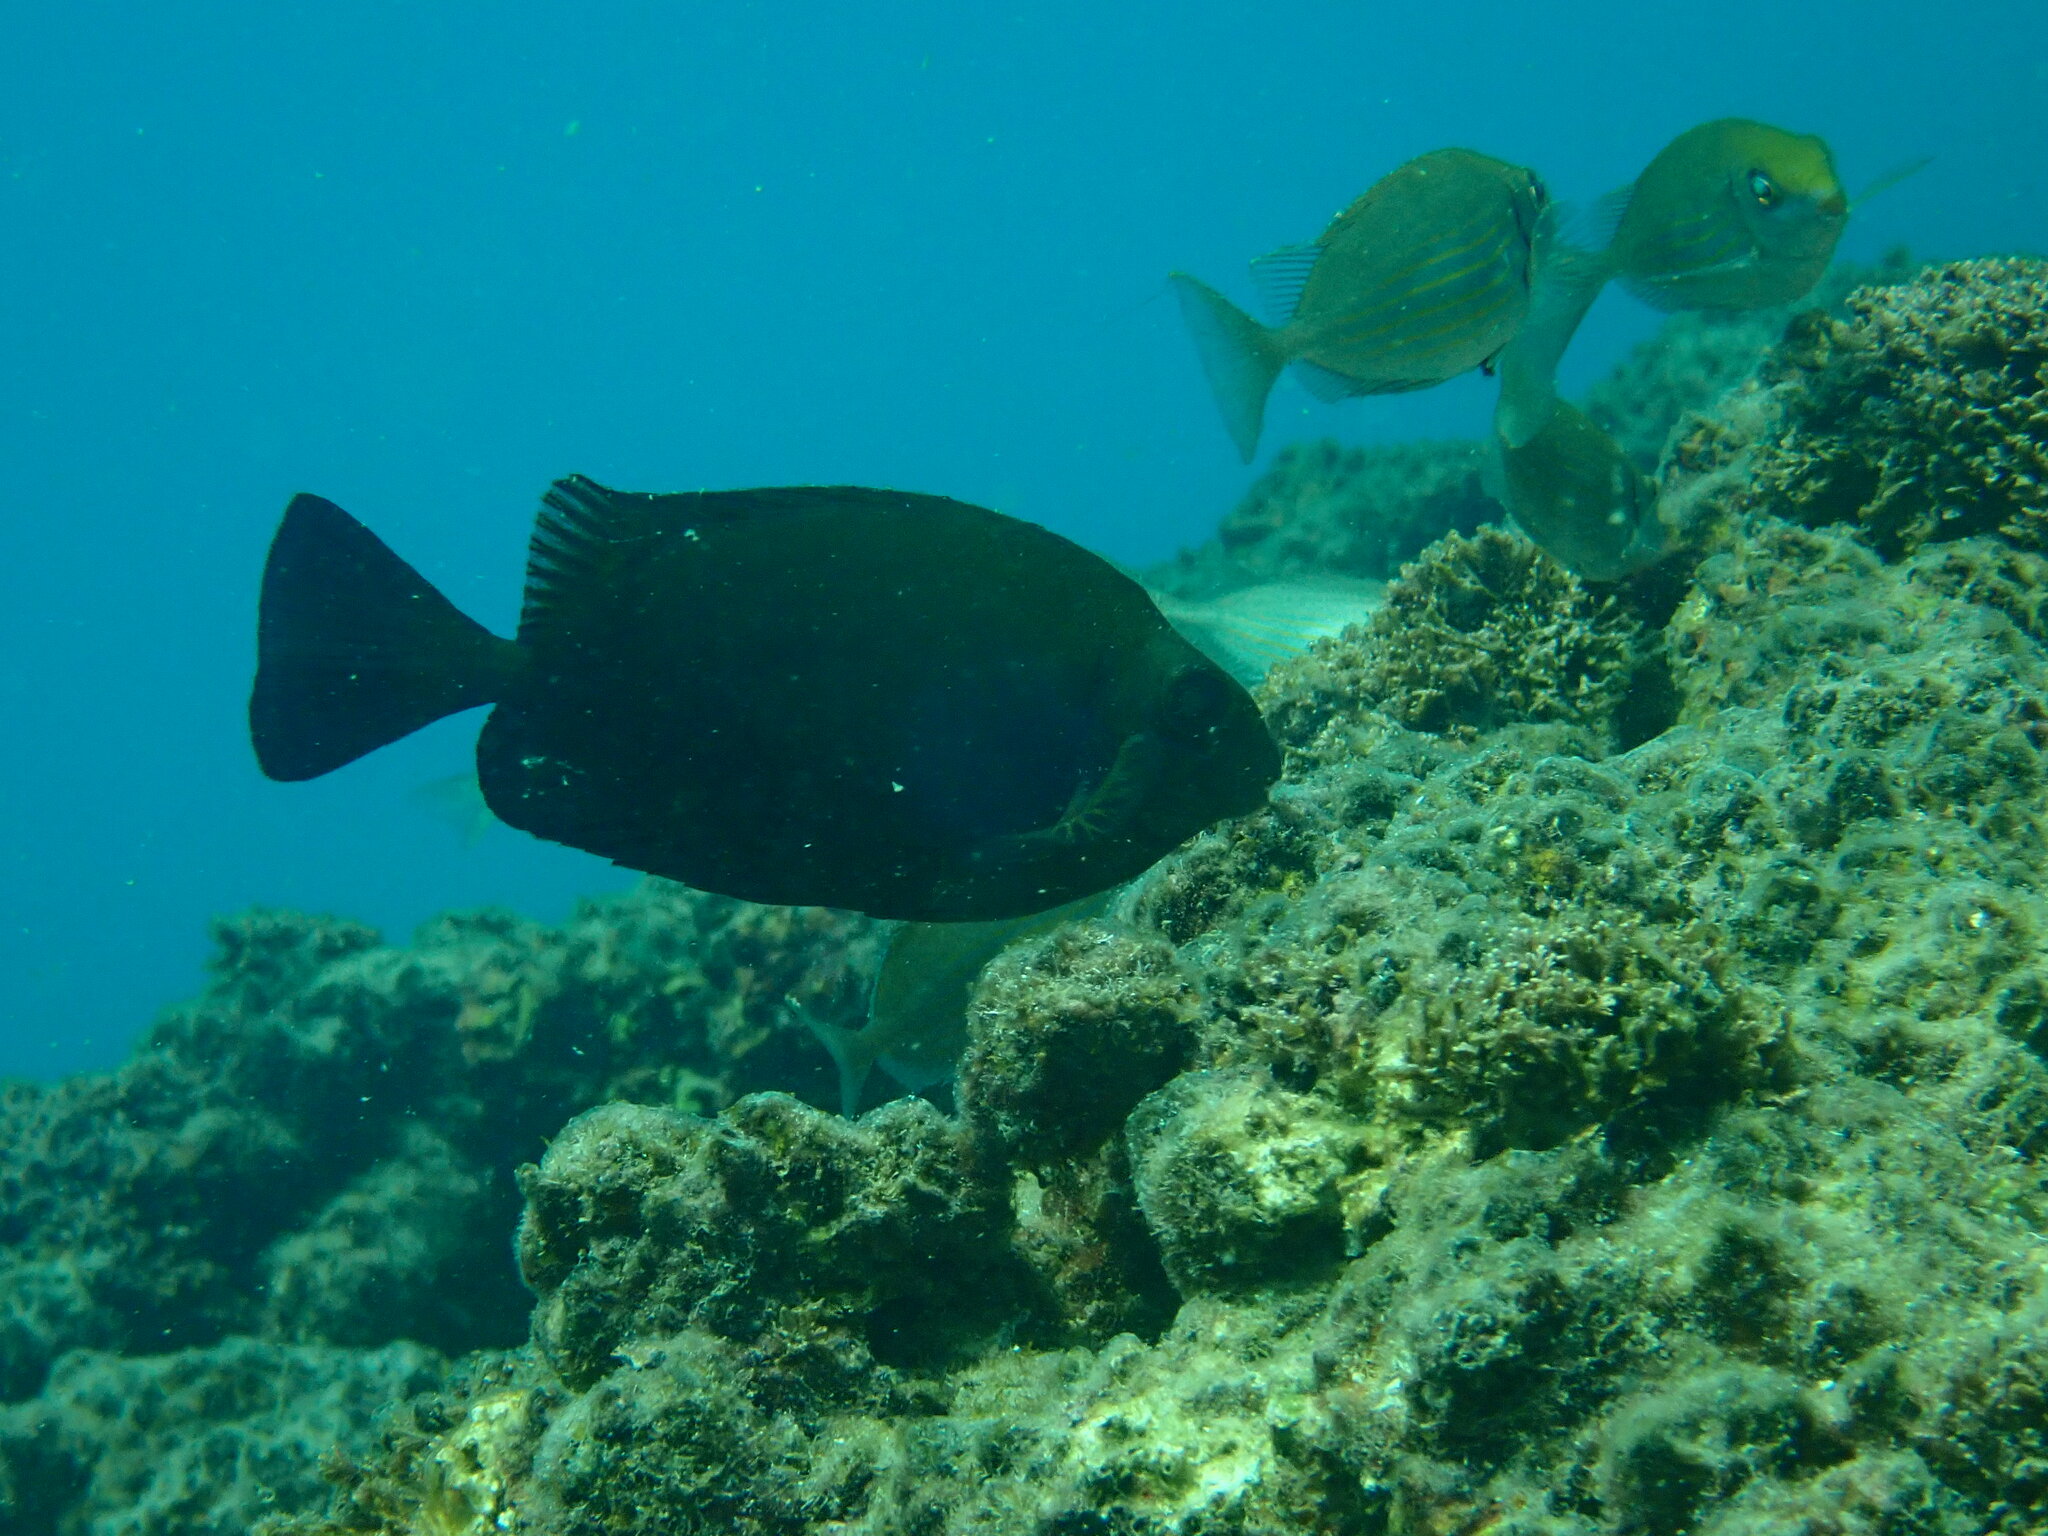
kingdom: Animalia
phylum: Chordata
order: Perciformes
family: Siganidae
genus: Siganus
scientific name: Siganus luridus
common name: Dusky spinefoot
